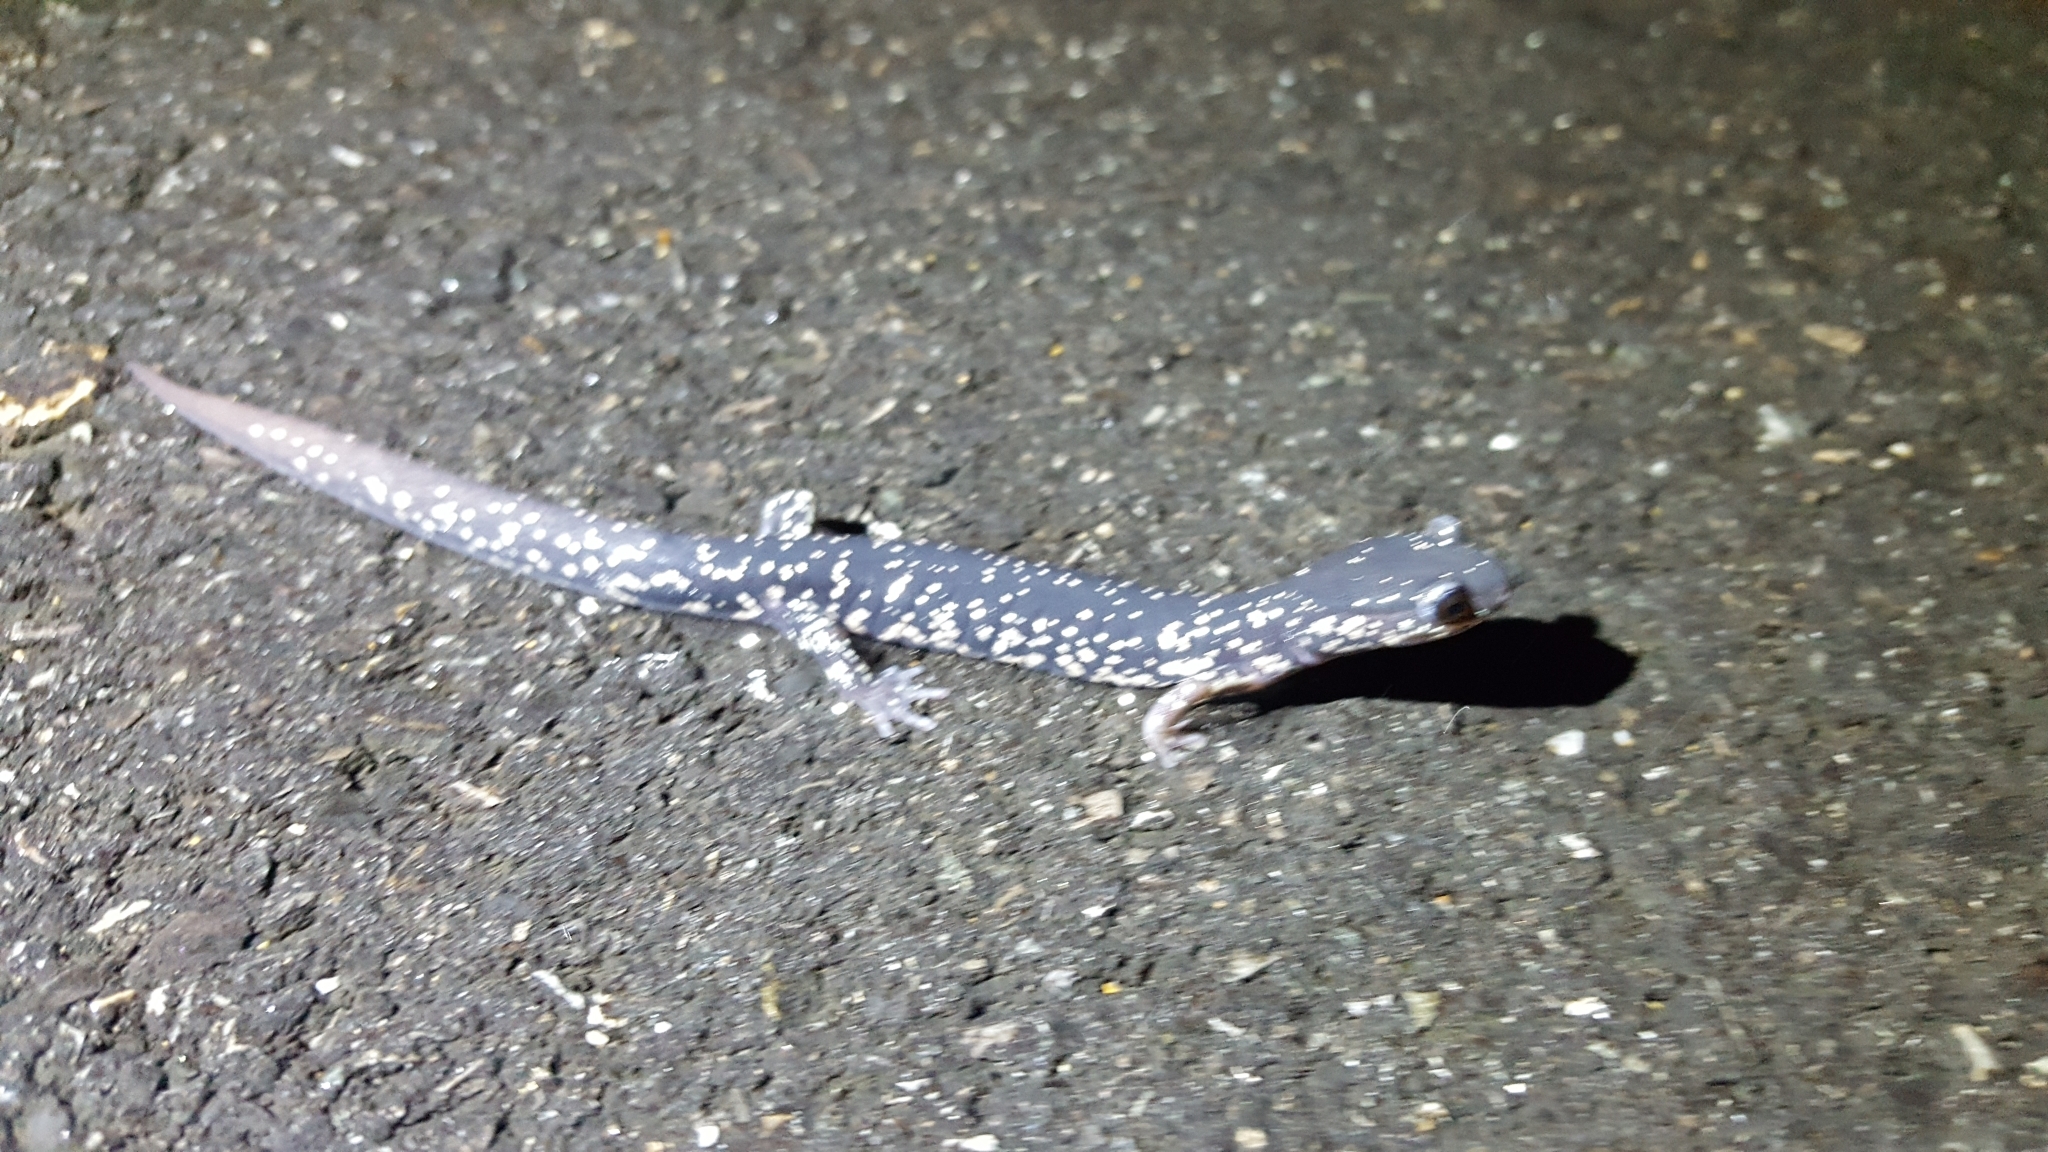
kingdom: Animalia
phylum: Chordata
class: Amphibia
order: Caudata
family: Plethodontidae
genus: Plethodon
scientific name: Plethodon albagula
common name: Western slimy salamander
